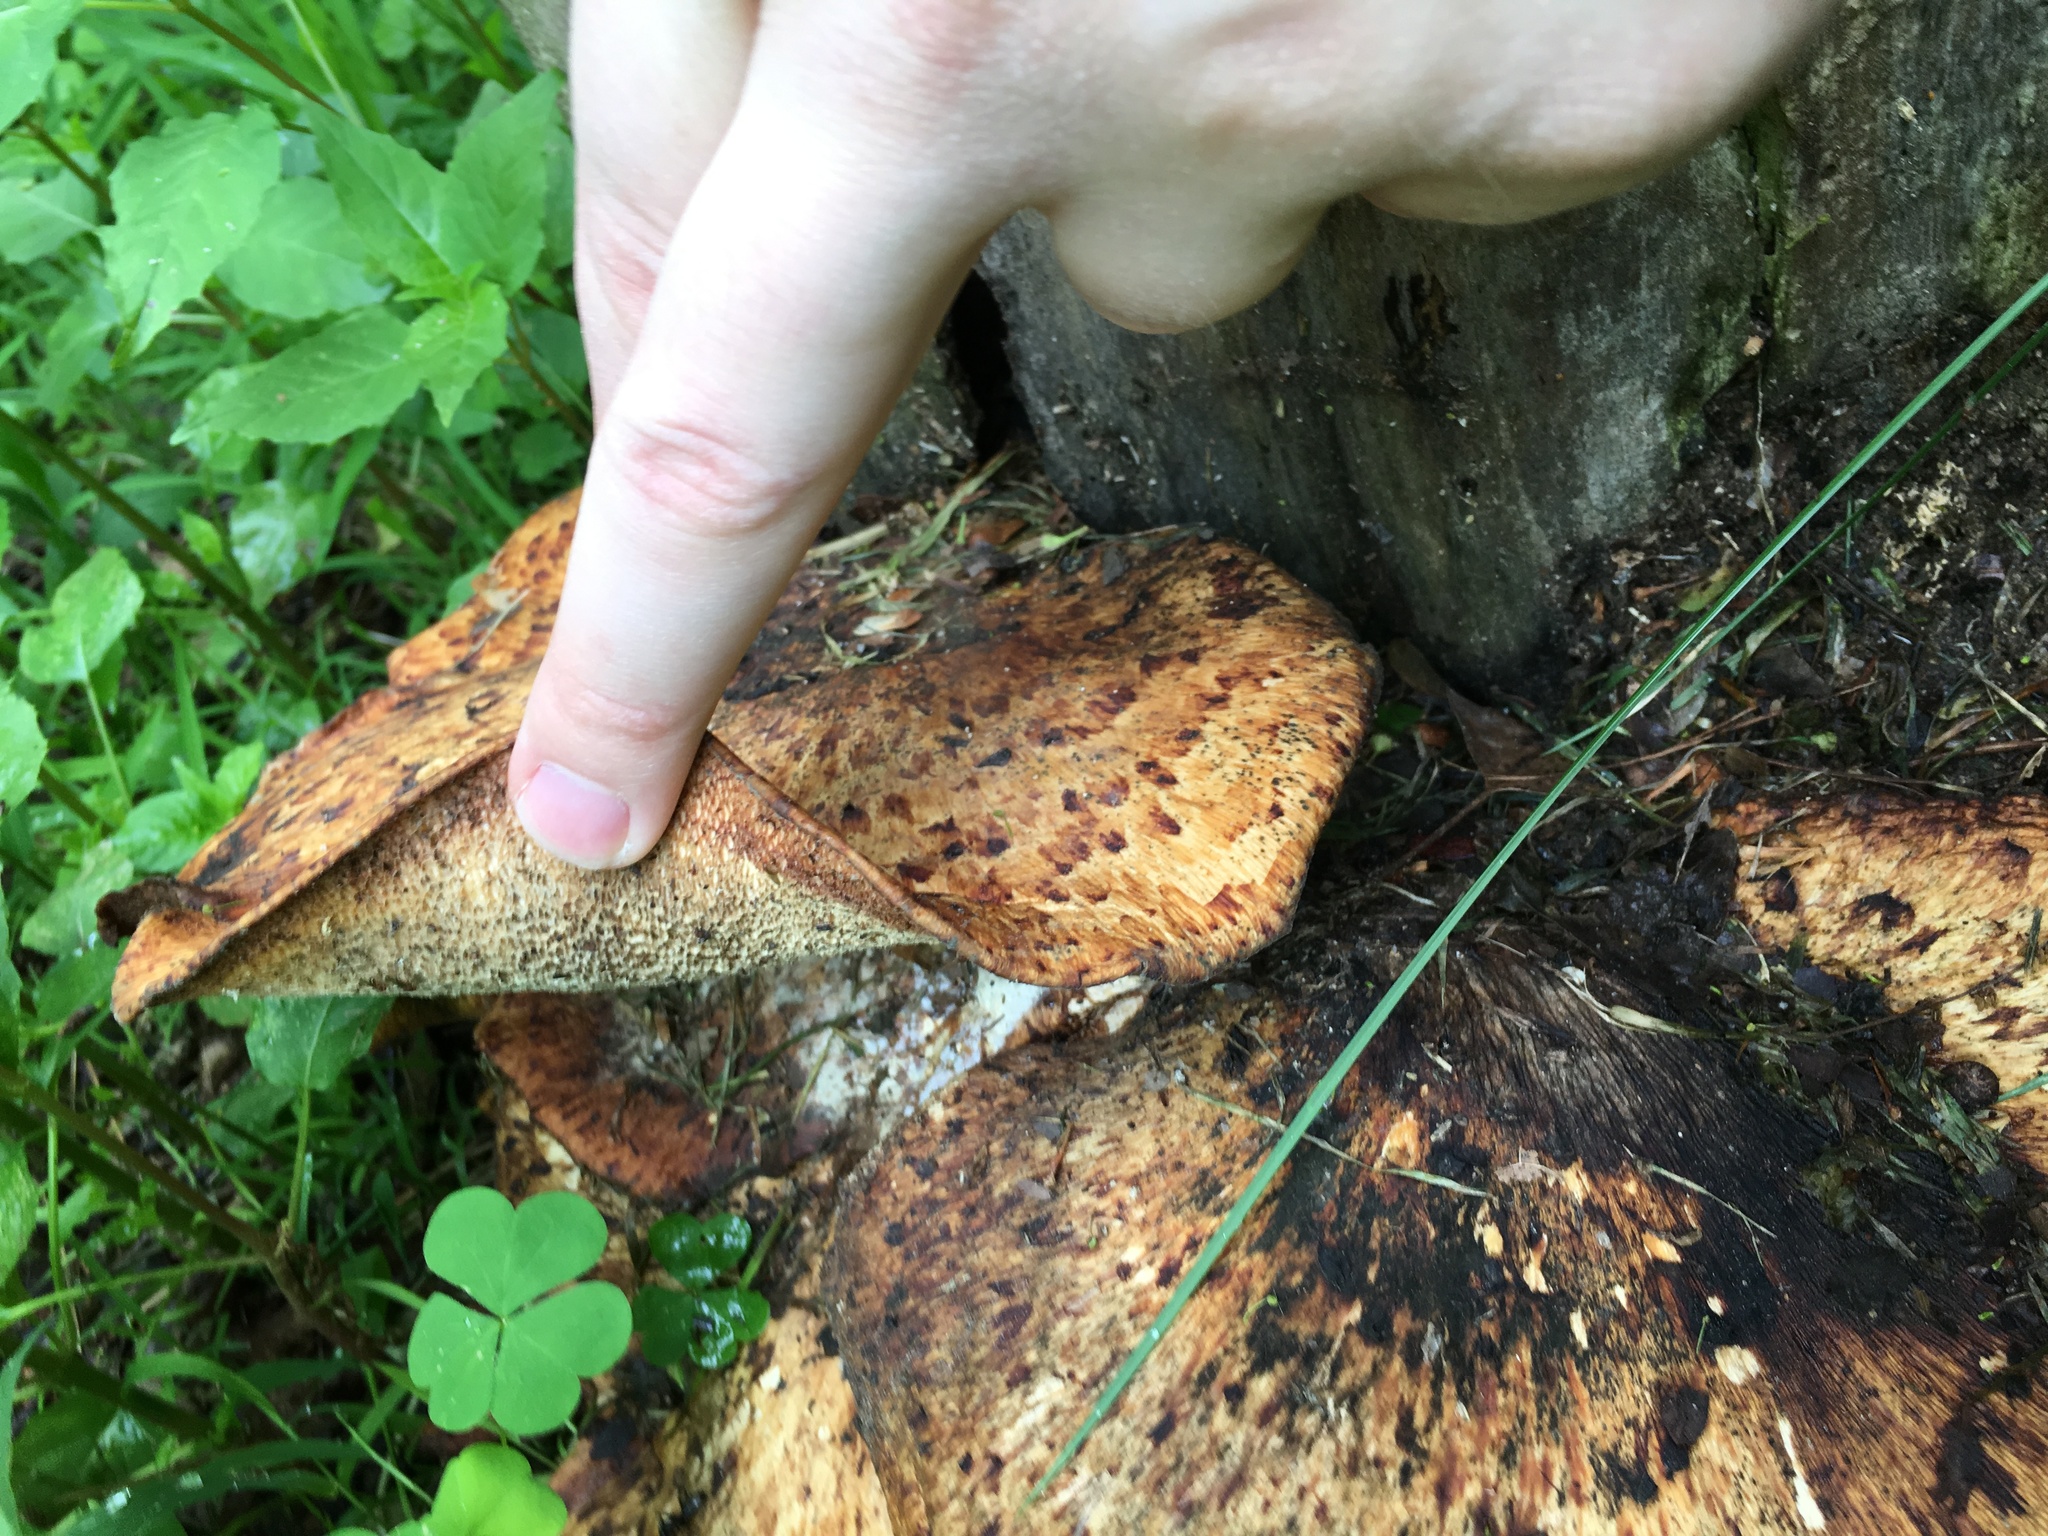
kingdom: Fungi
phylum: Basidiomycota
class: Agaricomycetes
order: Polyporales
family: Polyporaceae
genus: Cerioporus
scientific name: Cerioporus squamosus
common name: Dryad's saddle
